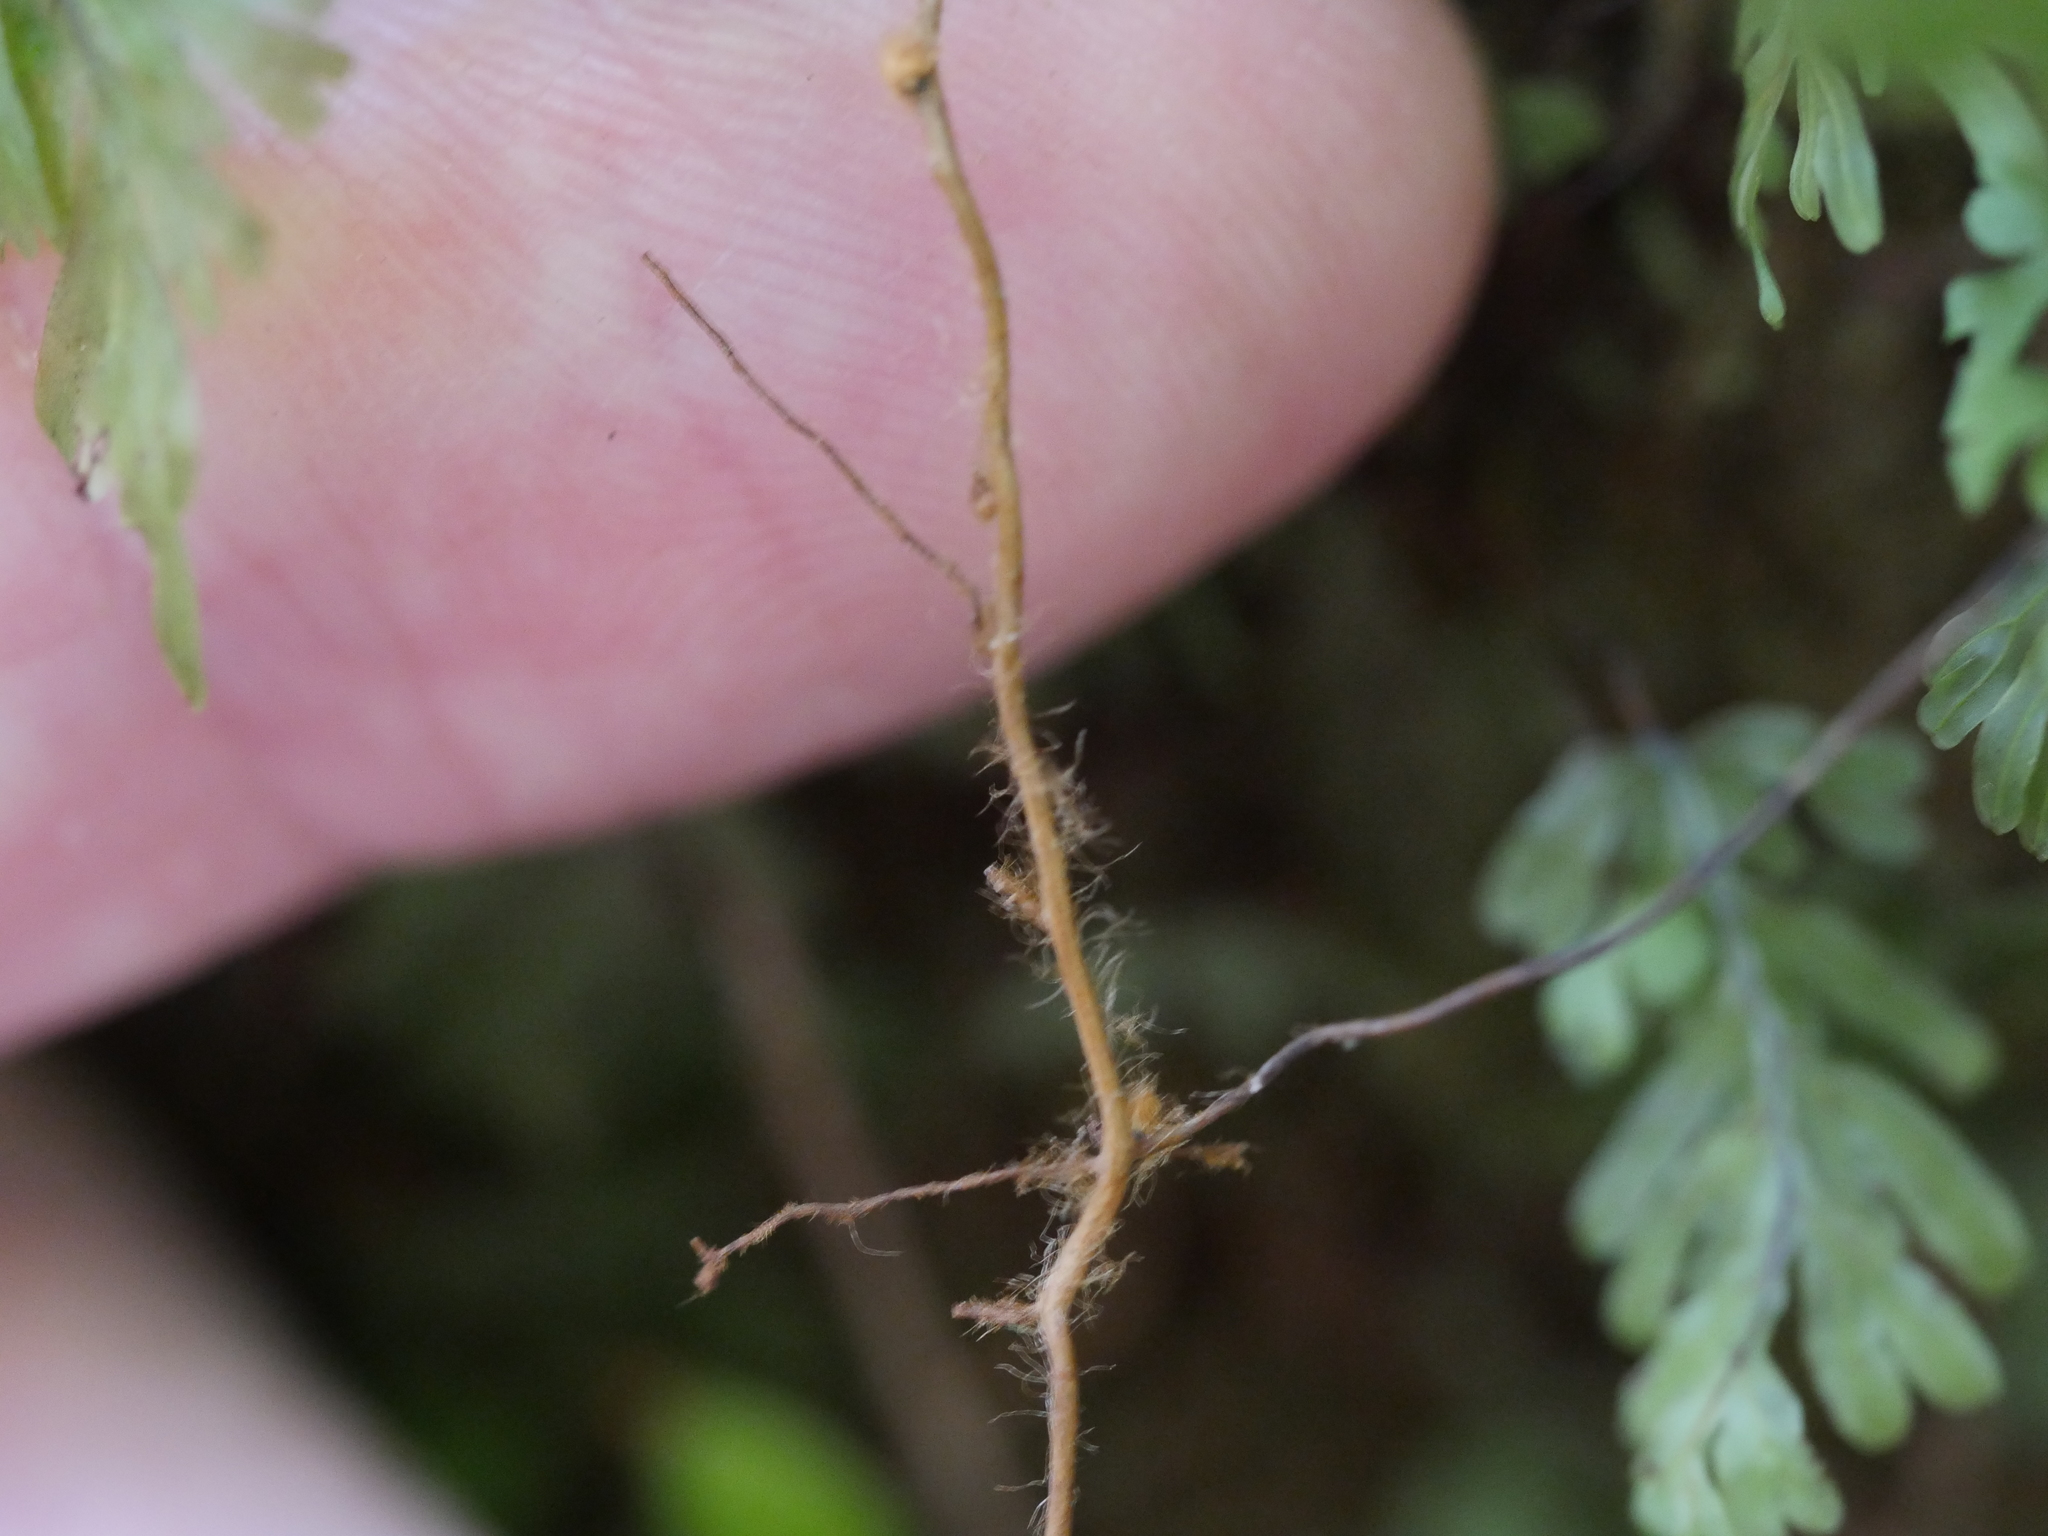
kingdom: Plantae
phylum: Tracheophyta
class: Polypodiopsida
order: Hymenophyllales
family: Hymenophyllaceae
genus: Hymenophyllum
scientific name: Hymenophyllum flabellatum
